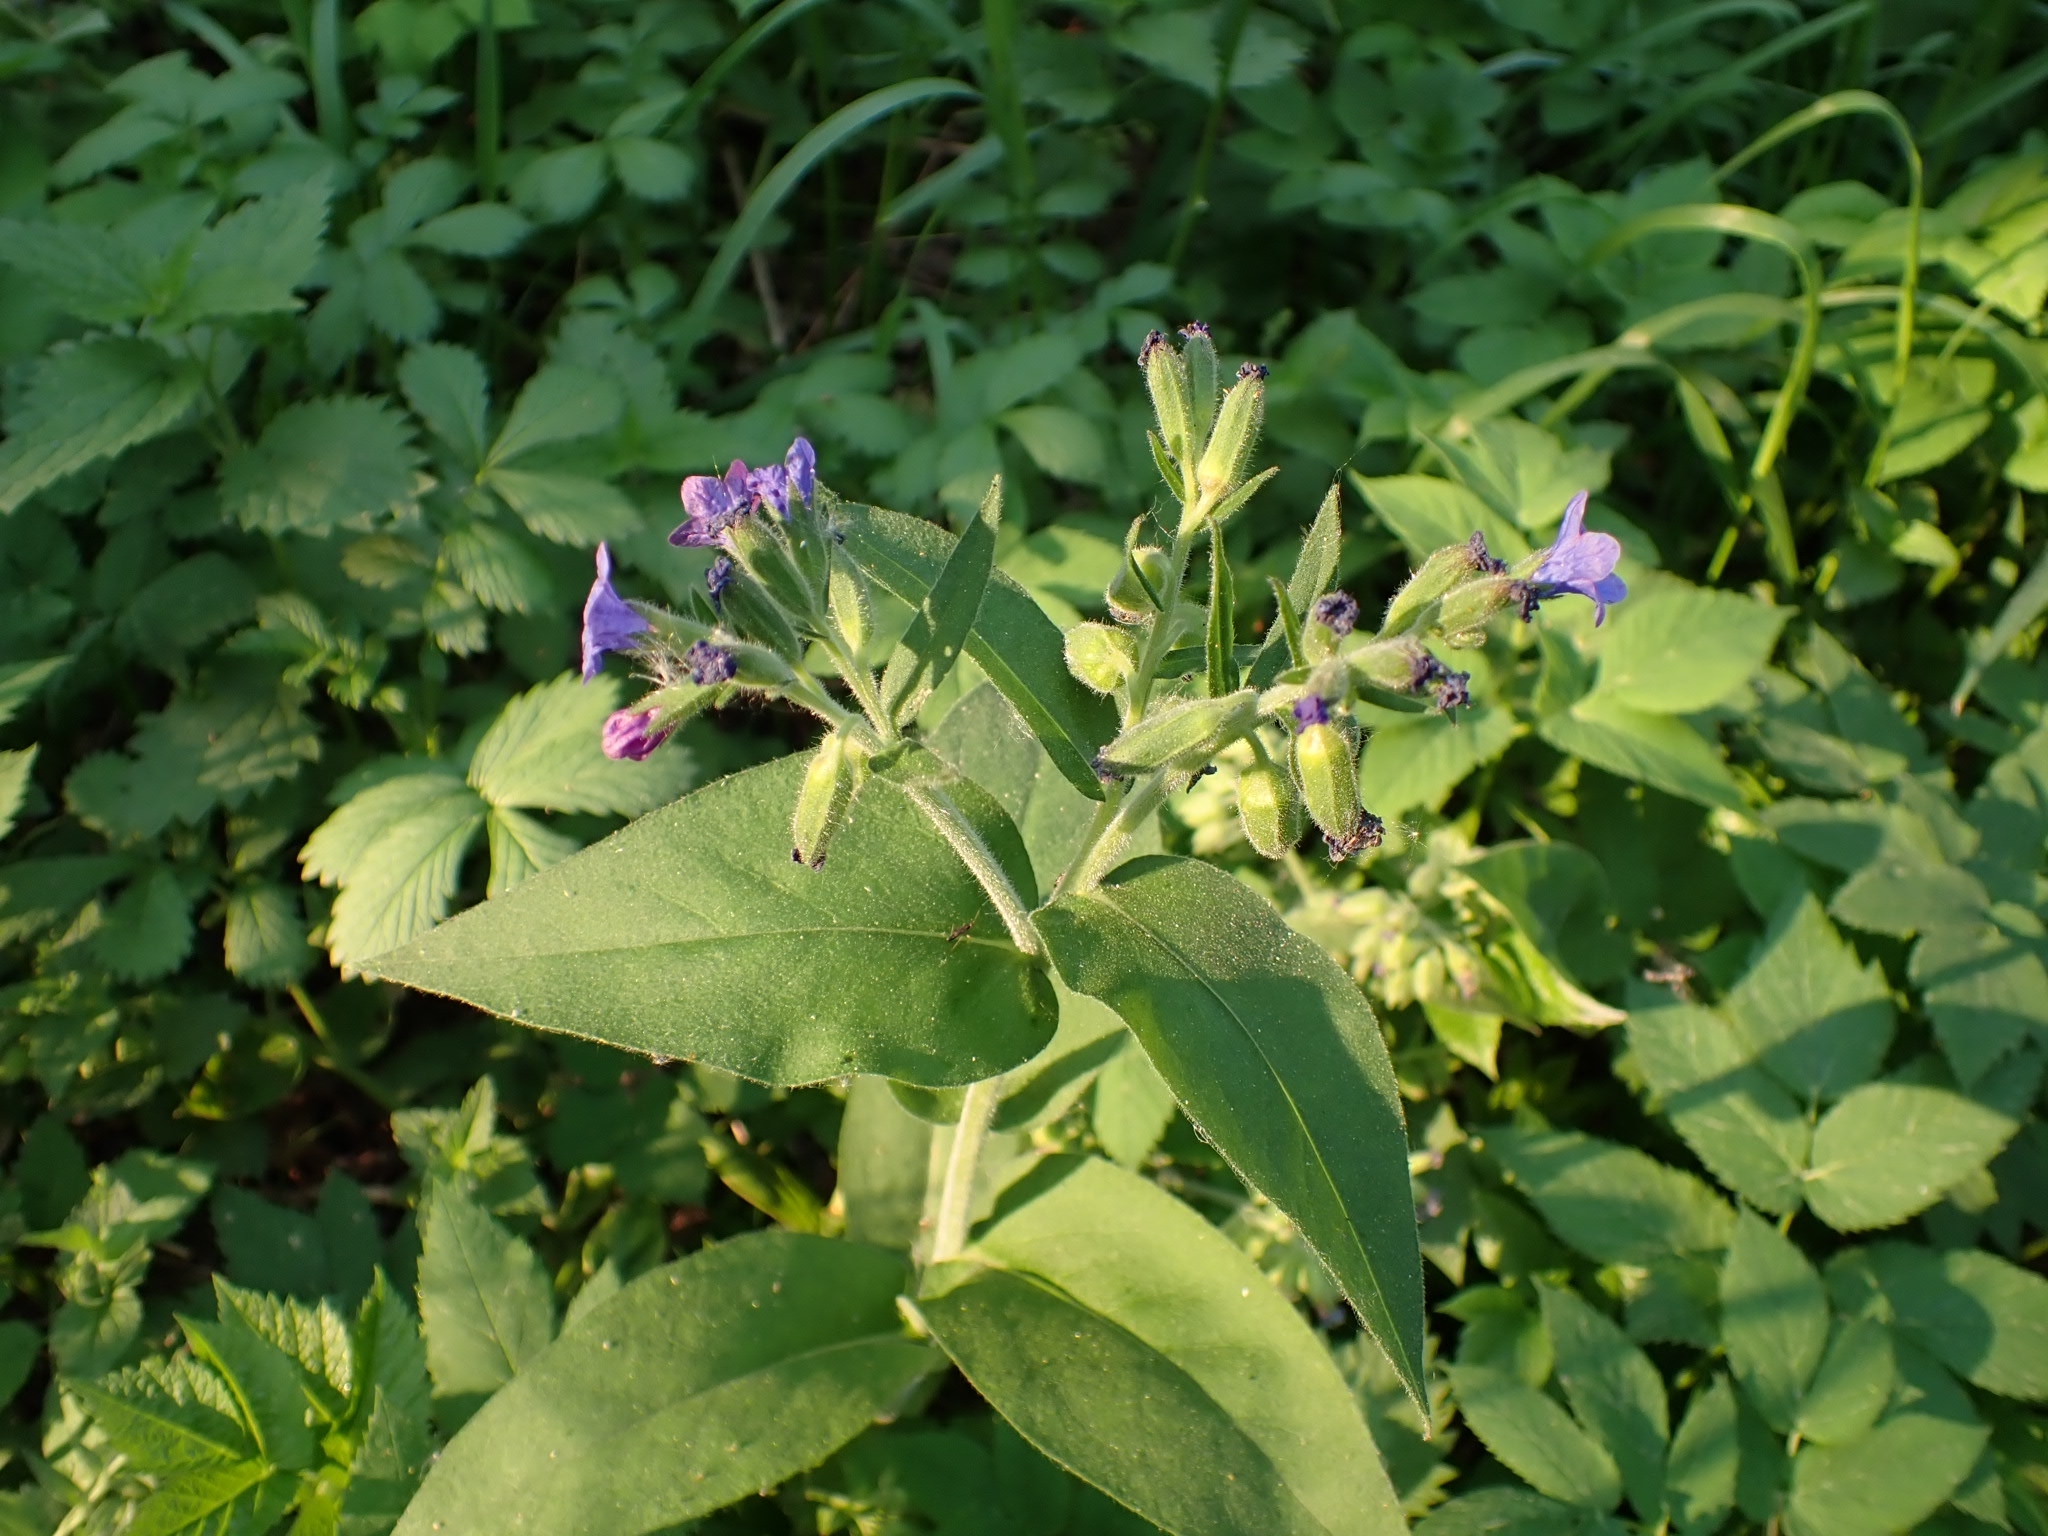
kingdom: Plantae
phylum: Tracheophyta
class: Magnoliopsida
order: Boraginales
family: Boraginaceae
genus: Pulmonaria
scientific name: Pulmonaria mollis
